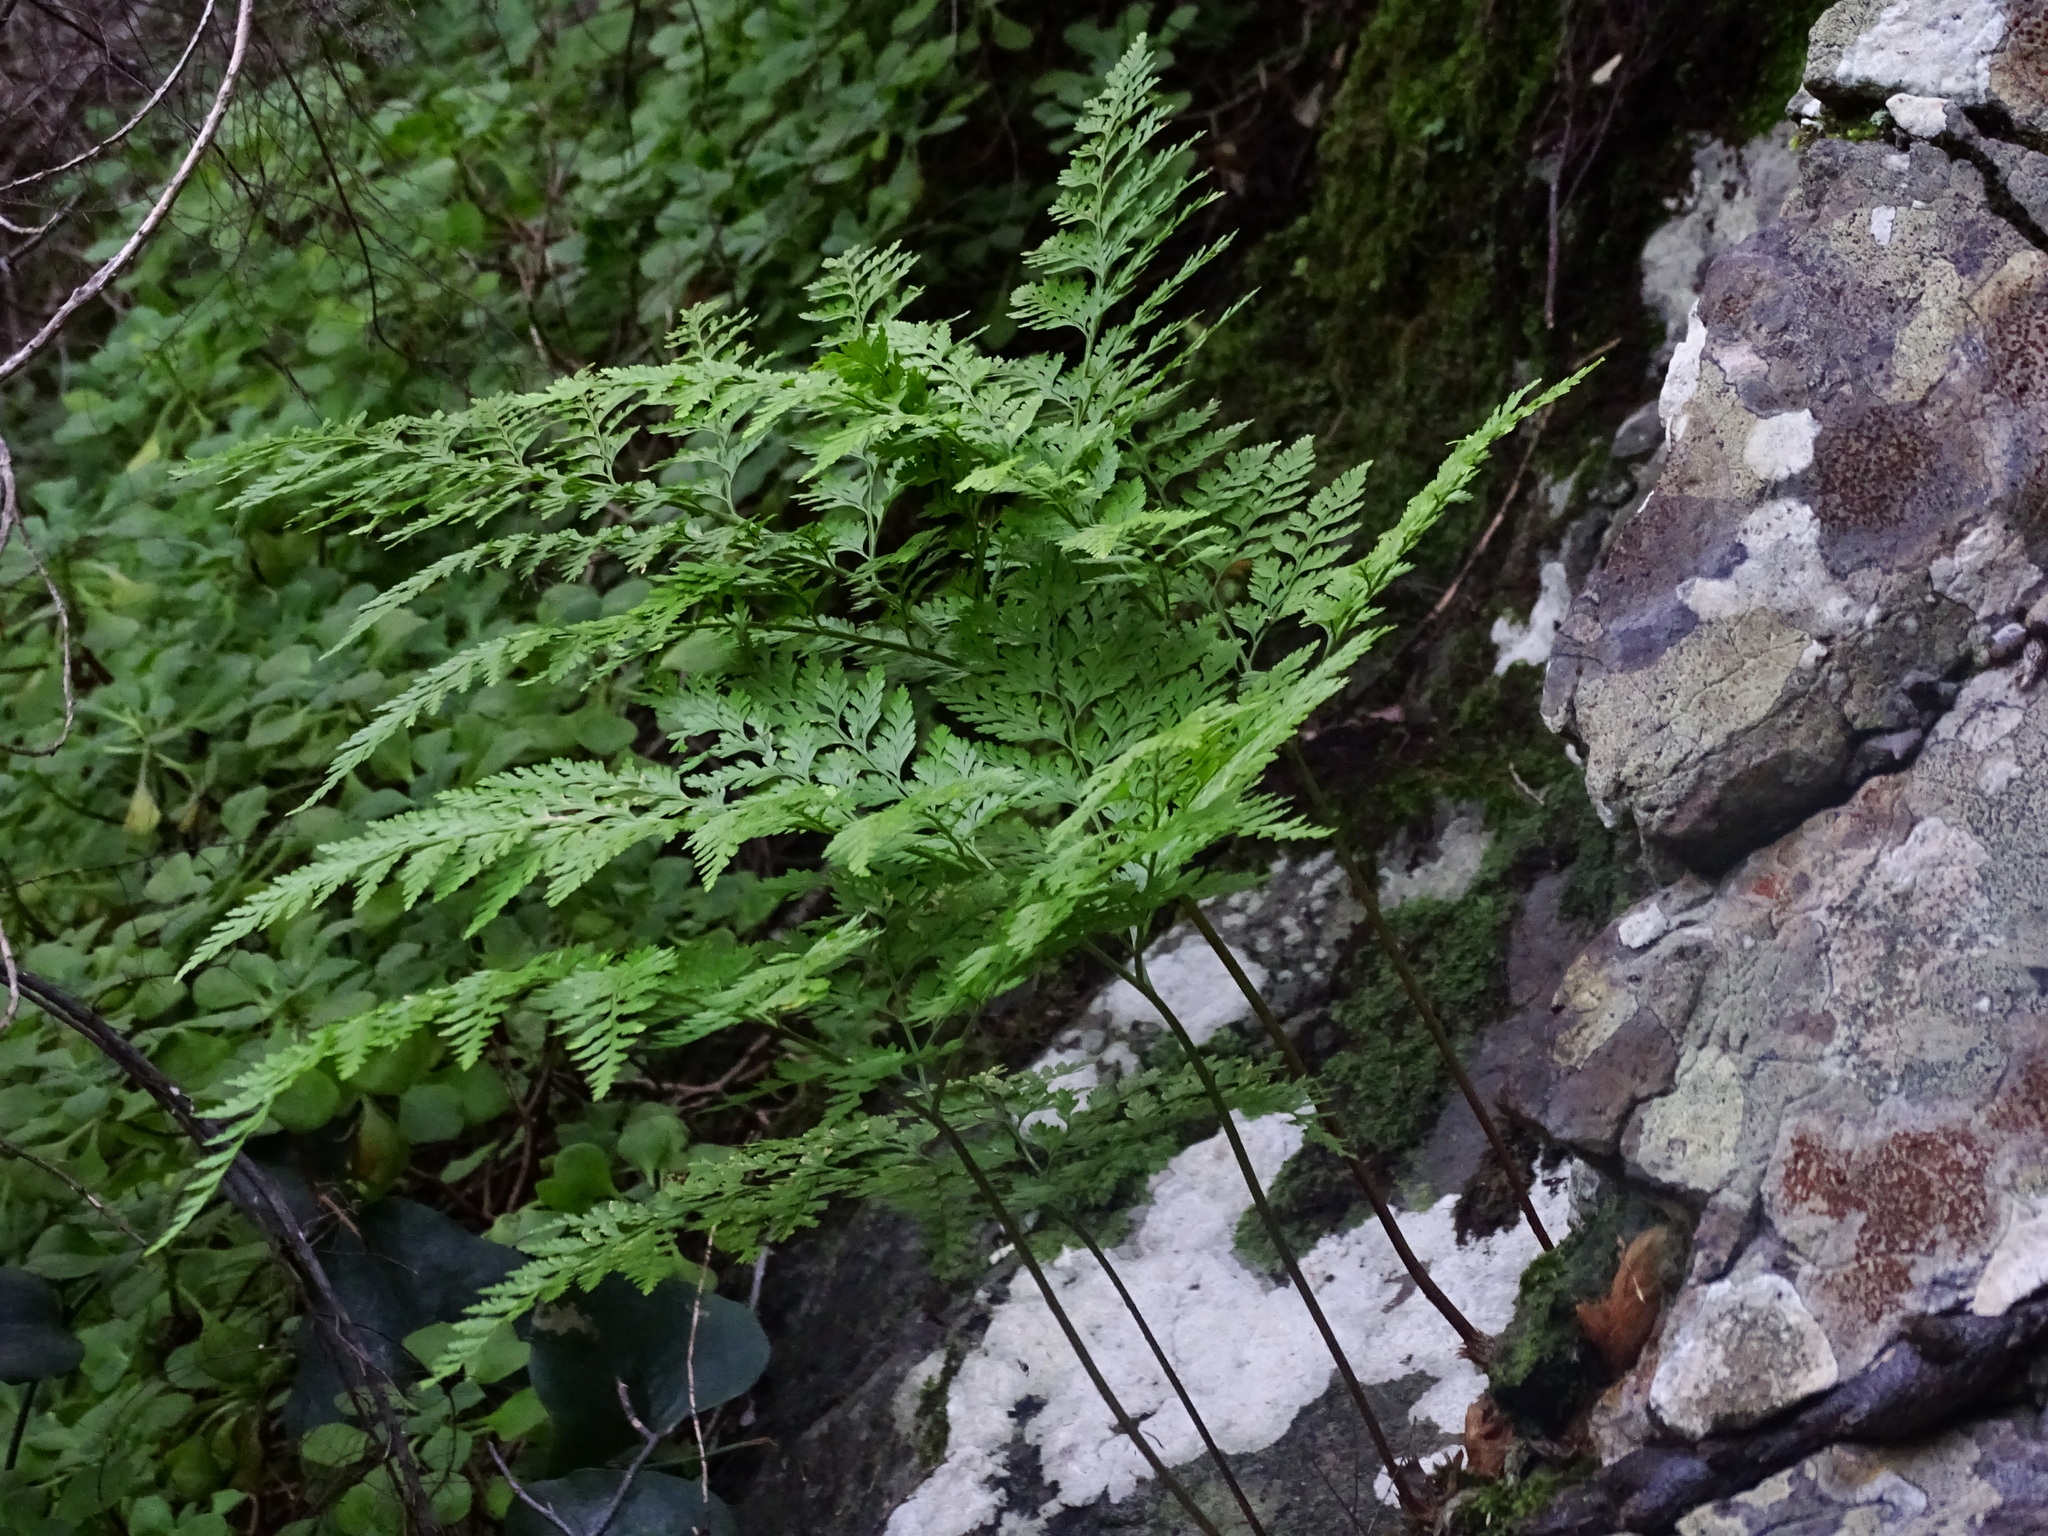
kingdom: Plantae
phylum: Tracheophyta
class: Polypodiopsida
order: Polypodiales
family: Davalliaceae
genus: Davallia
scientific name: Davallia canariensis
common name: Hare's-foot fern
